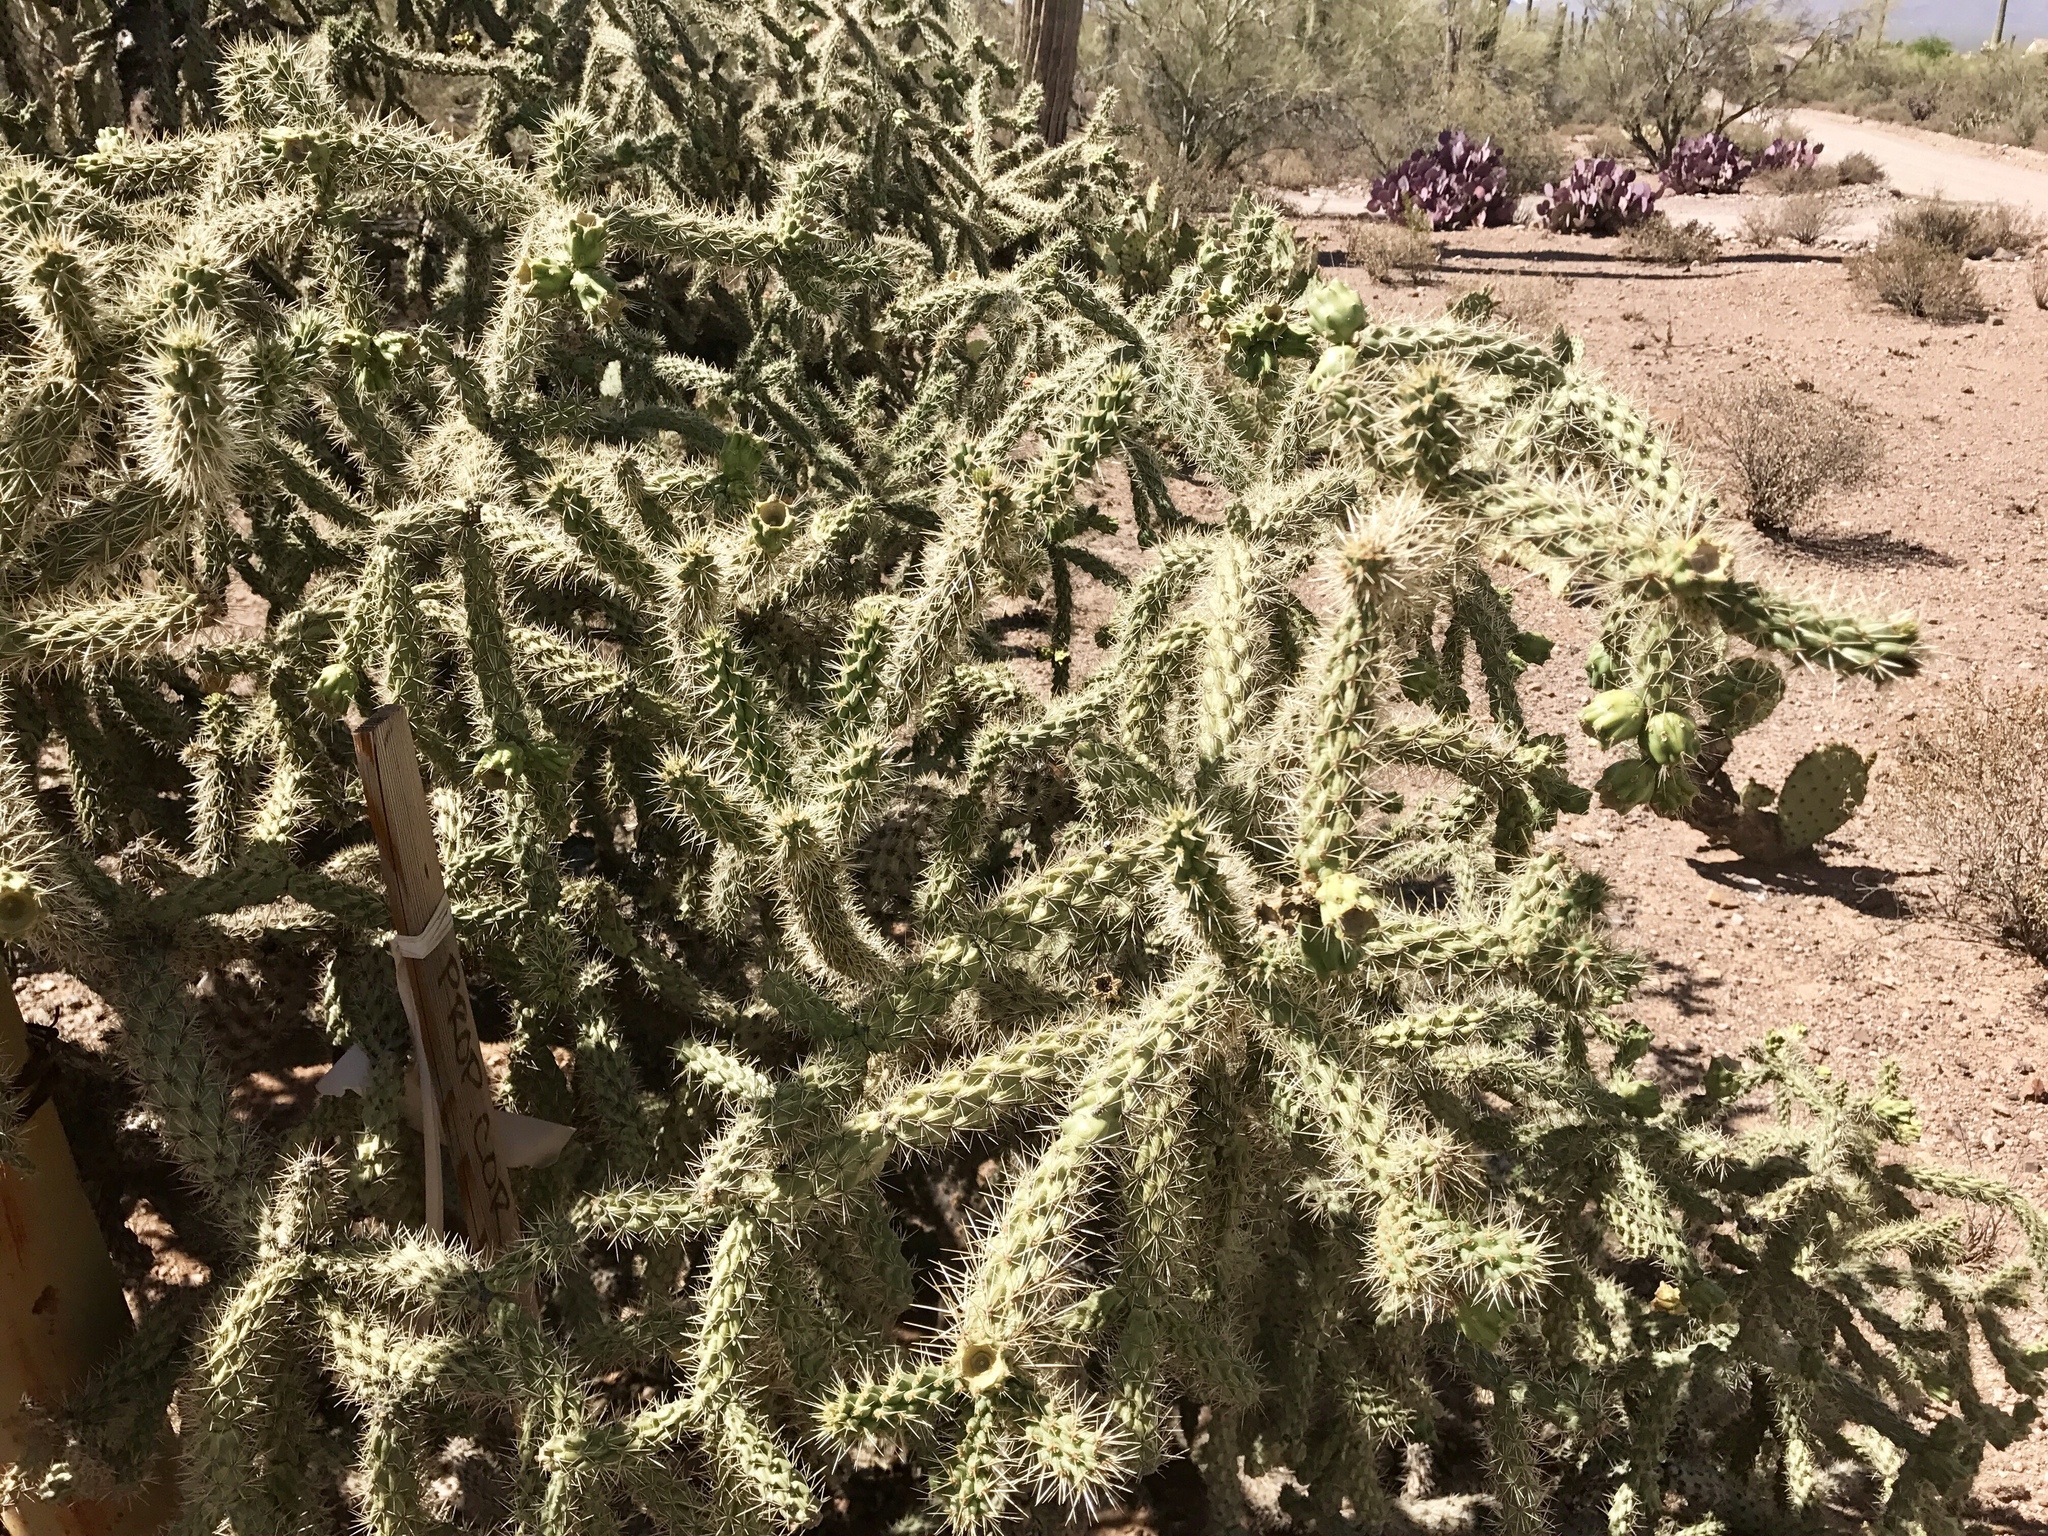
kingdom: Plantae
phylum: Tracheophyta
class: Magnoliopsida
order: Caryophyllales
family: Cactaceae
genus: Cylindropuntia
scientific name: Cylindropuntia fulgida
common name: Jumping cholla
